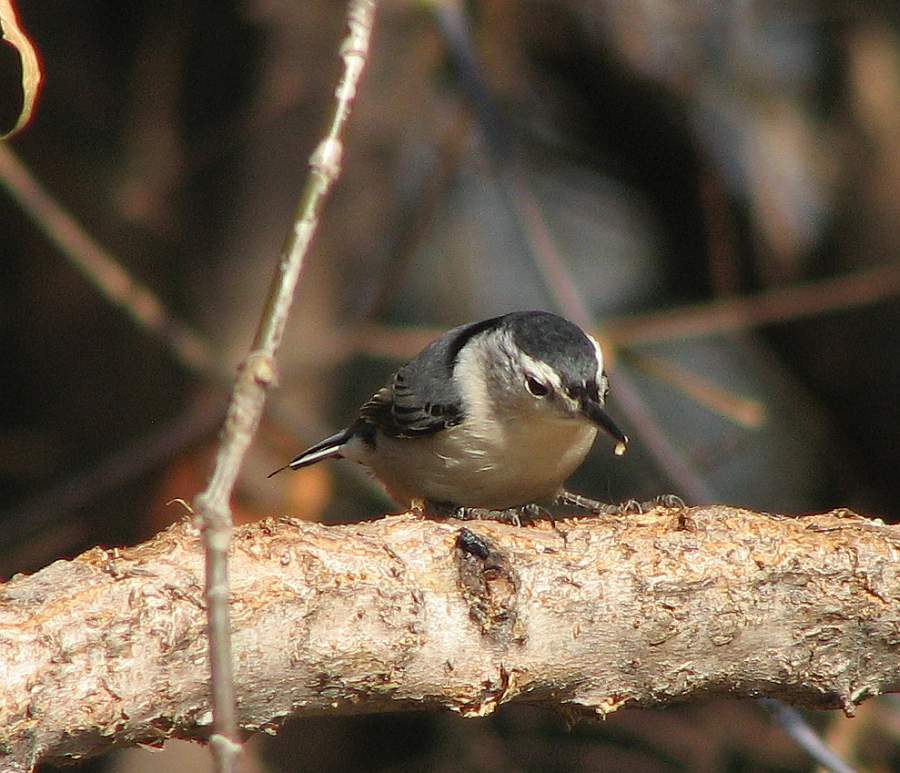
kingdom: Animalia
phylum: Chordata
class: Aves
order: Passeriformes
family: Sittidae
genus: Sitta
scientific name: Sitta carolinensis
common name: White-breasted nuthatch
